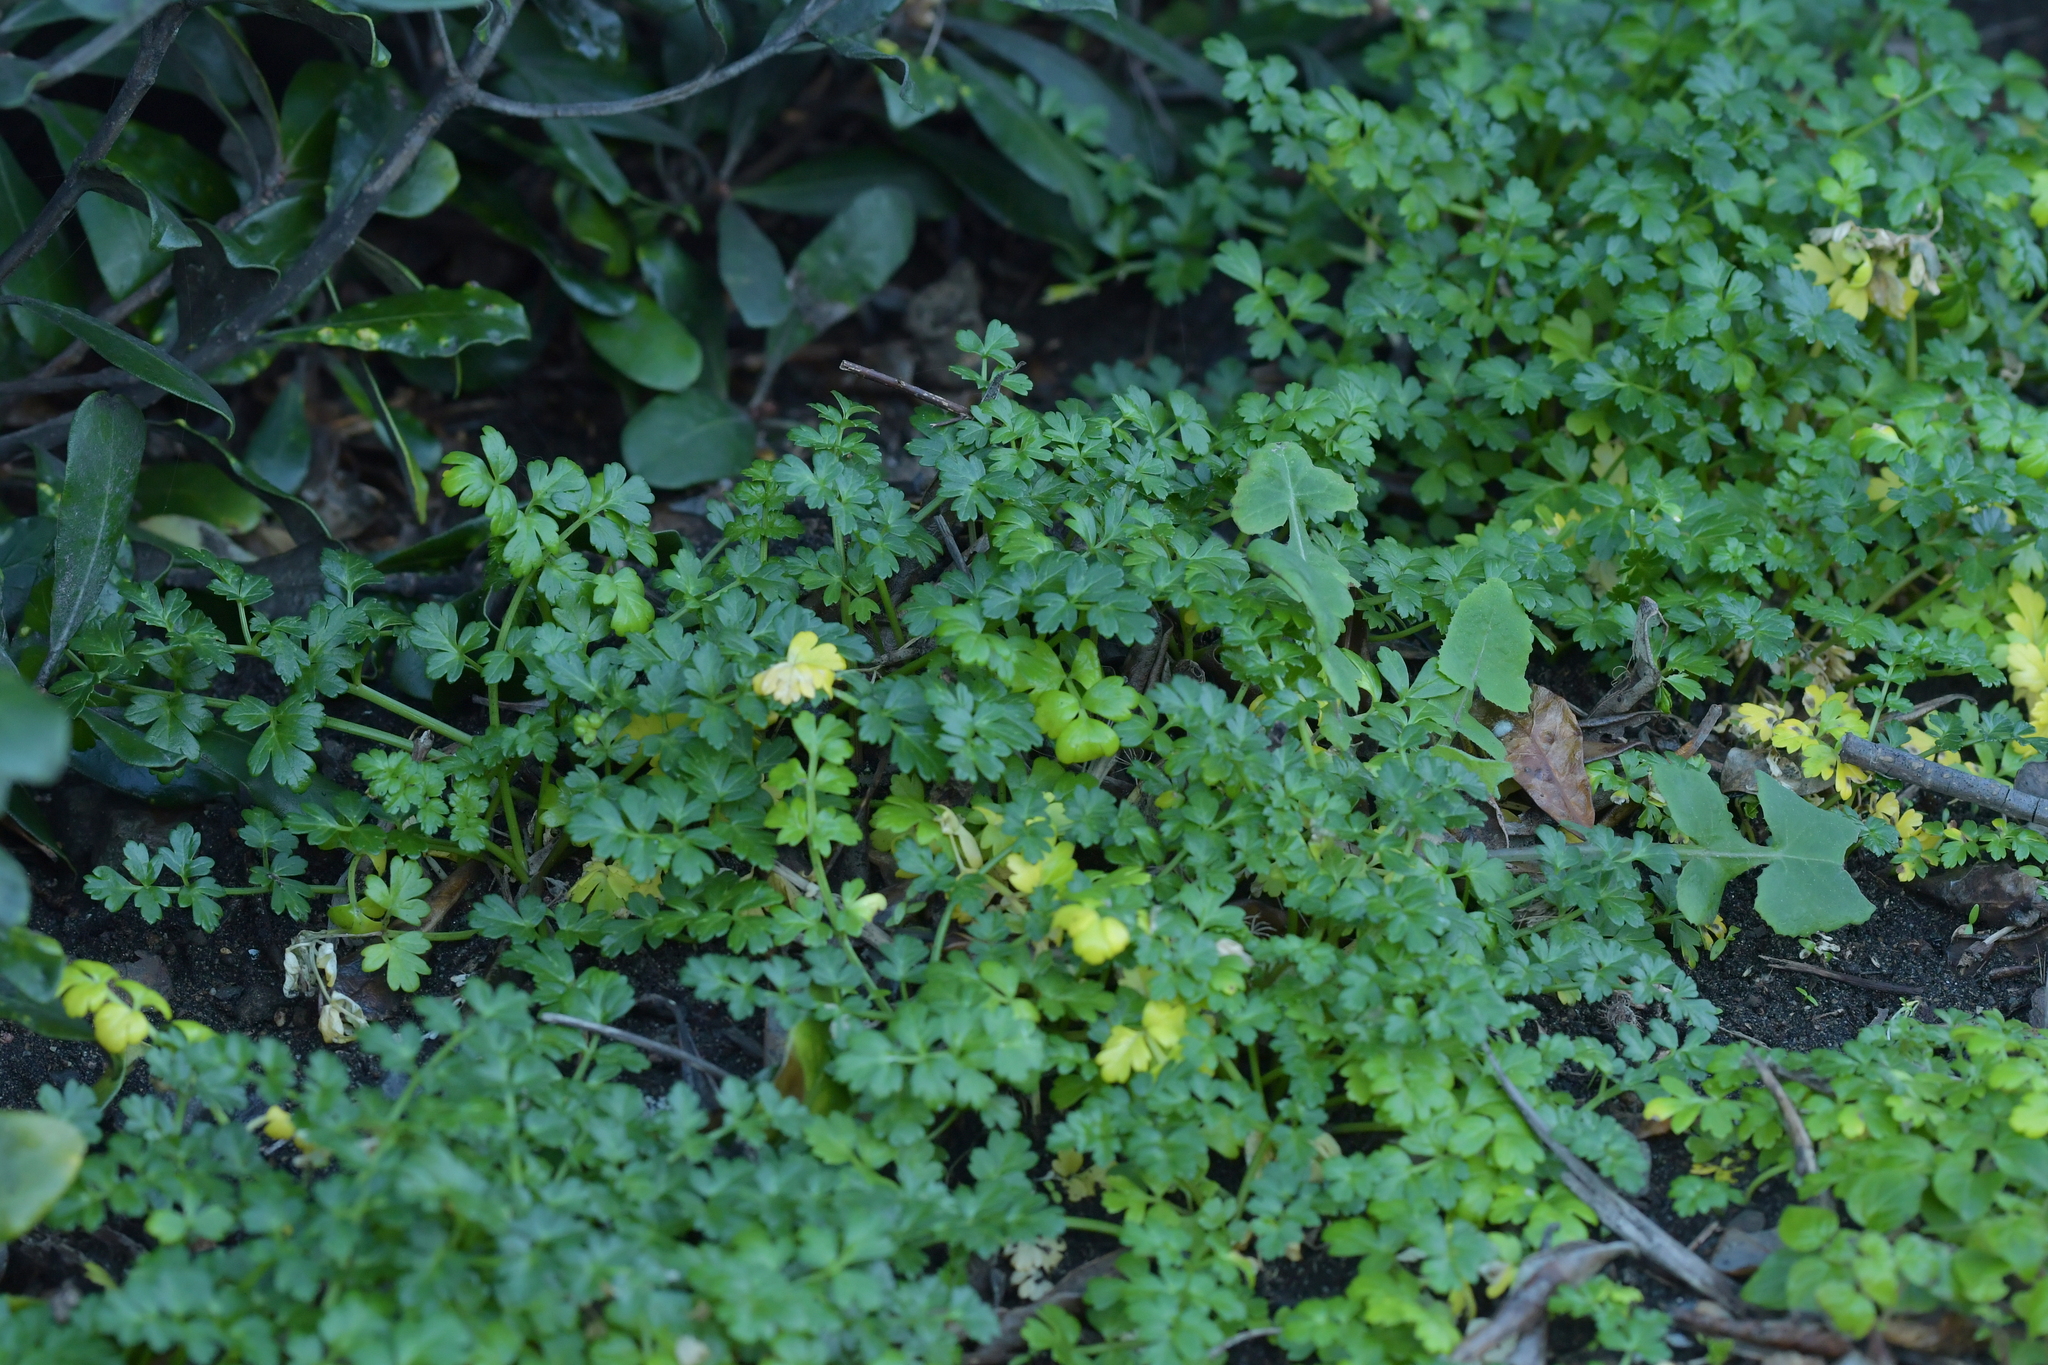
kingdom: Plantae
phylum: Tracheophyta
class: Magnoliopsida
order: Apiales
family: Apiaceae
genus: Apium
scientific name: Apium prostratum
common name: Prostrate marshwort
